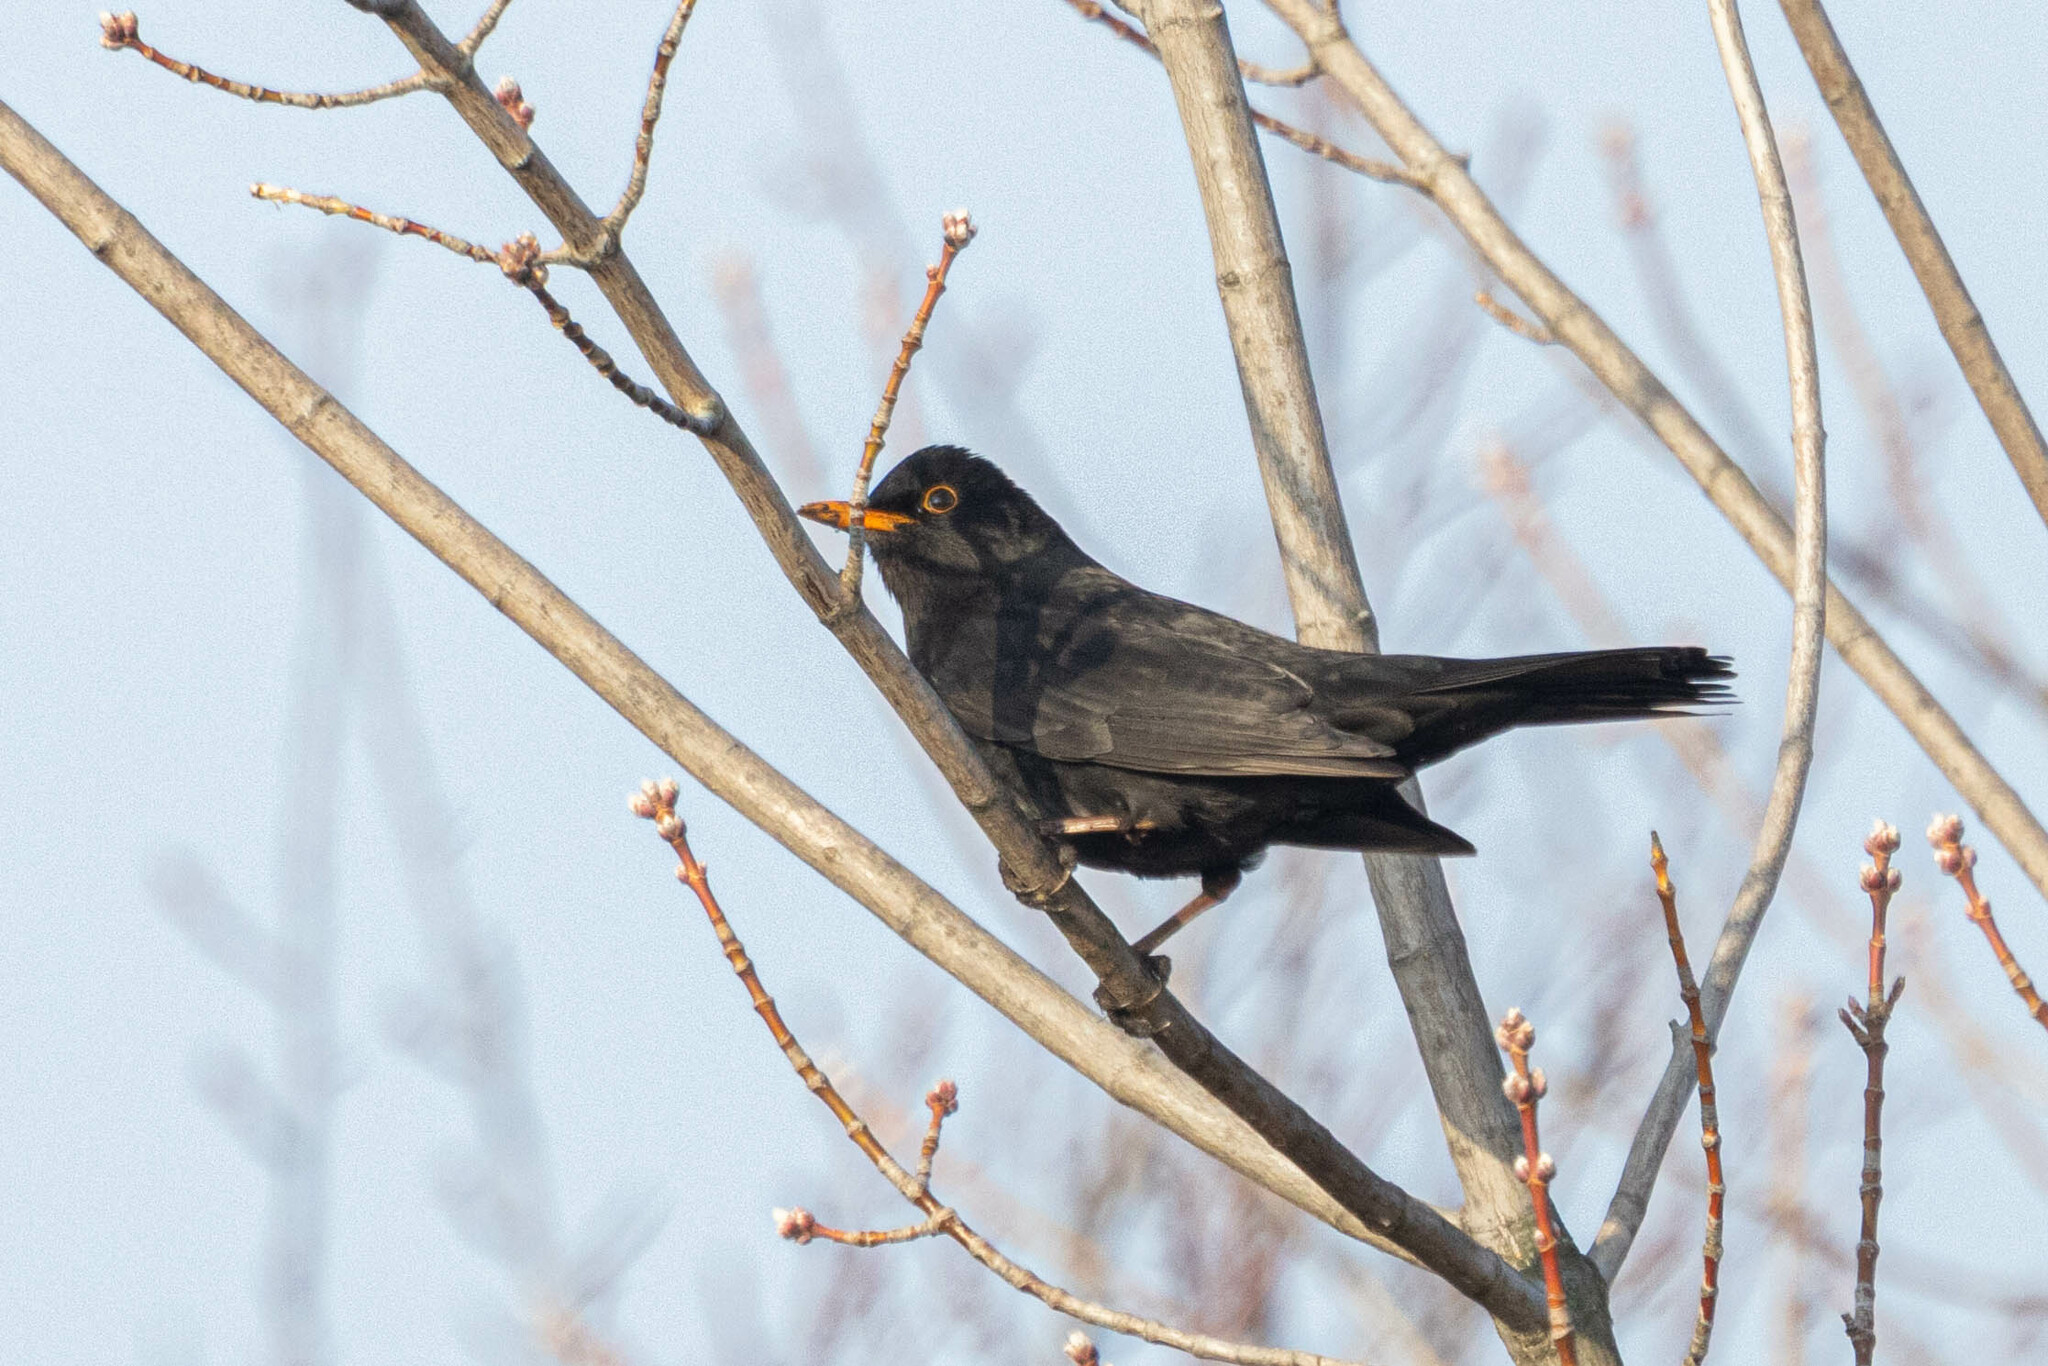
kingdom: Animalia
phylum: Chordata
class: Aves
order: Passeriformes
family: Turdidae
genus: Turdus
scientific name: Turdus merula
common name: Common blackbird
